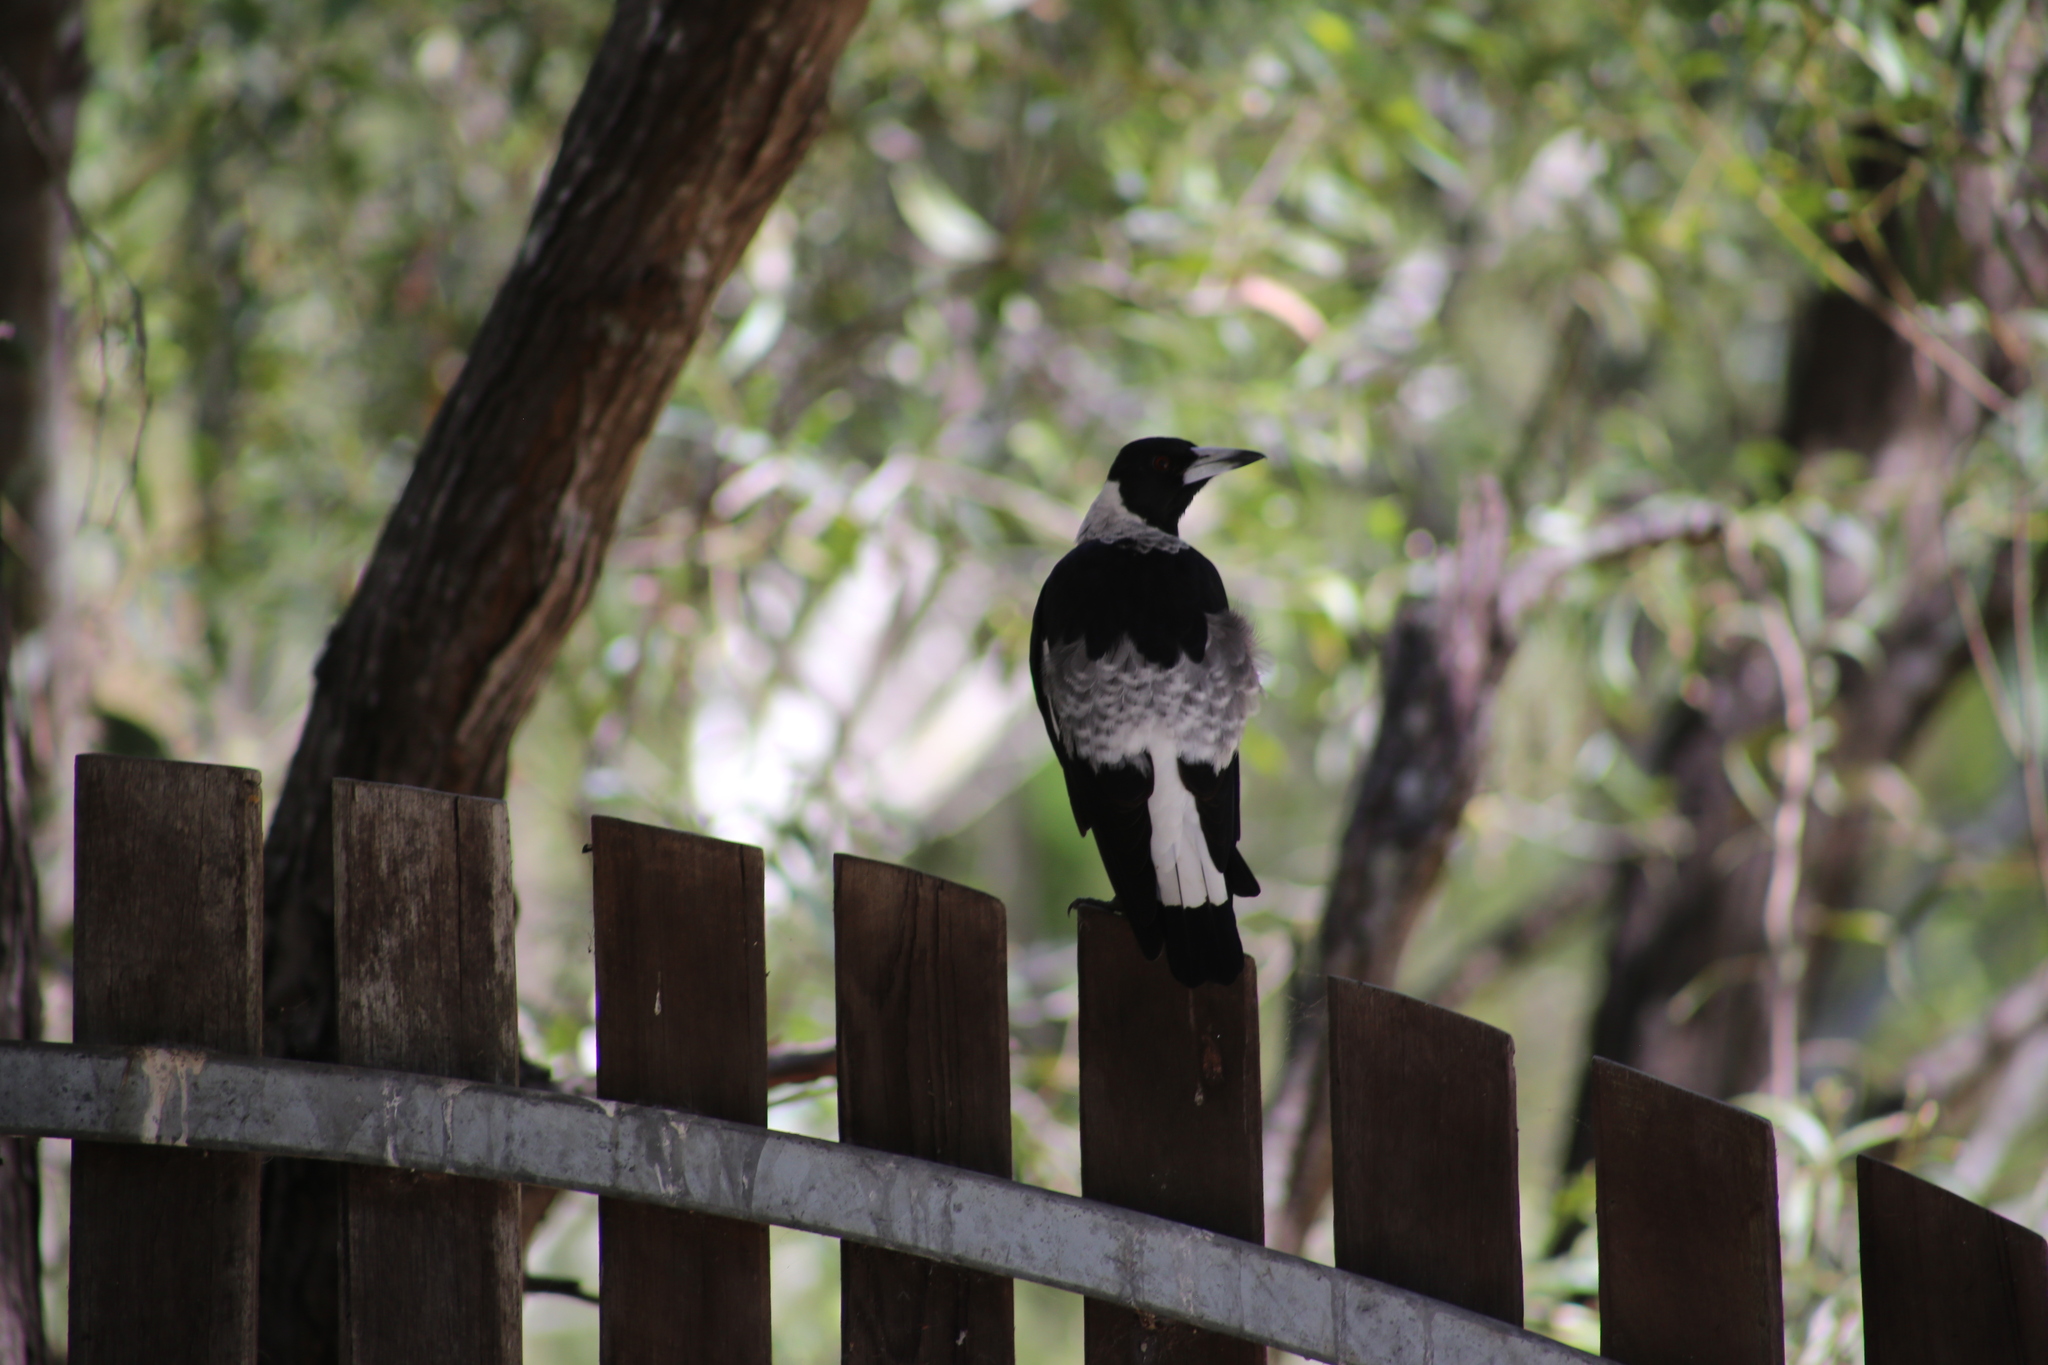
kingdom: Animalia
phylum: Chordata
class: Aves
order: Passeriformes
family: Cracticidae
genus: Gymnorhina
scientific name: Gymnorhina tibicen
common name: Australian magpie
